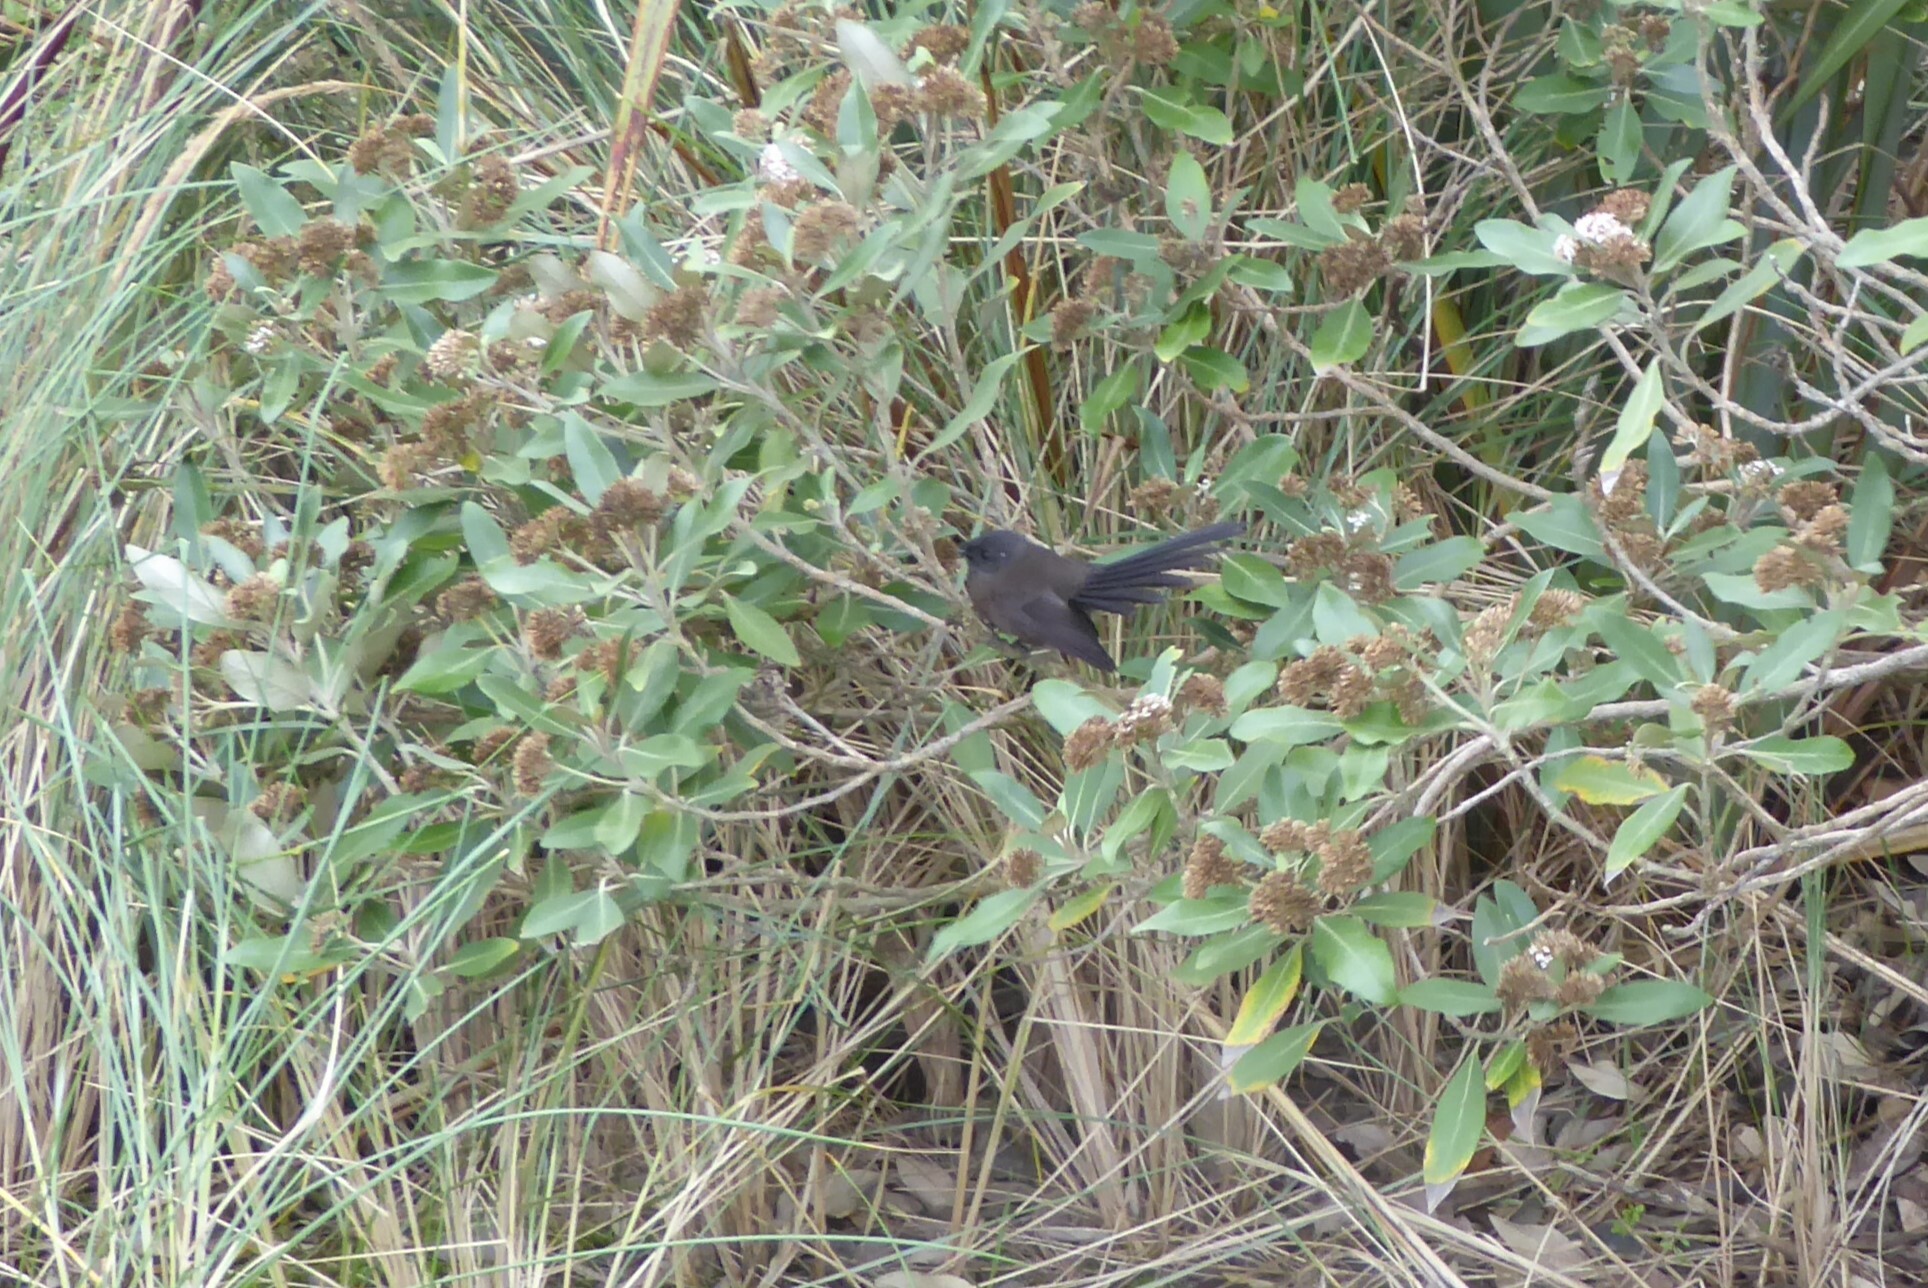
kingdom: Animalia
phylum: Chordata
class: Aves
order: Passeriformes
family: Rhipiduridae
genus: Rhipidura
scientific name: Rhipidura fuliginosa
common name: New zealand fantail
